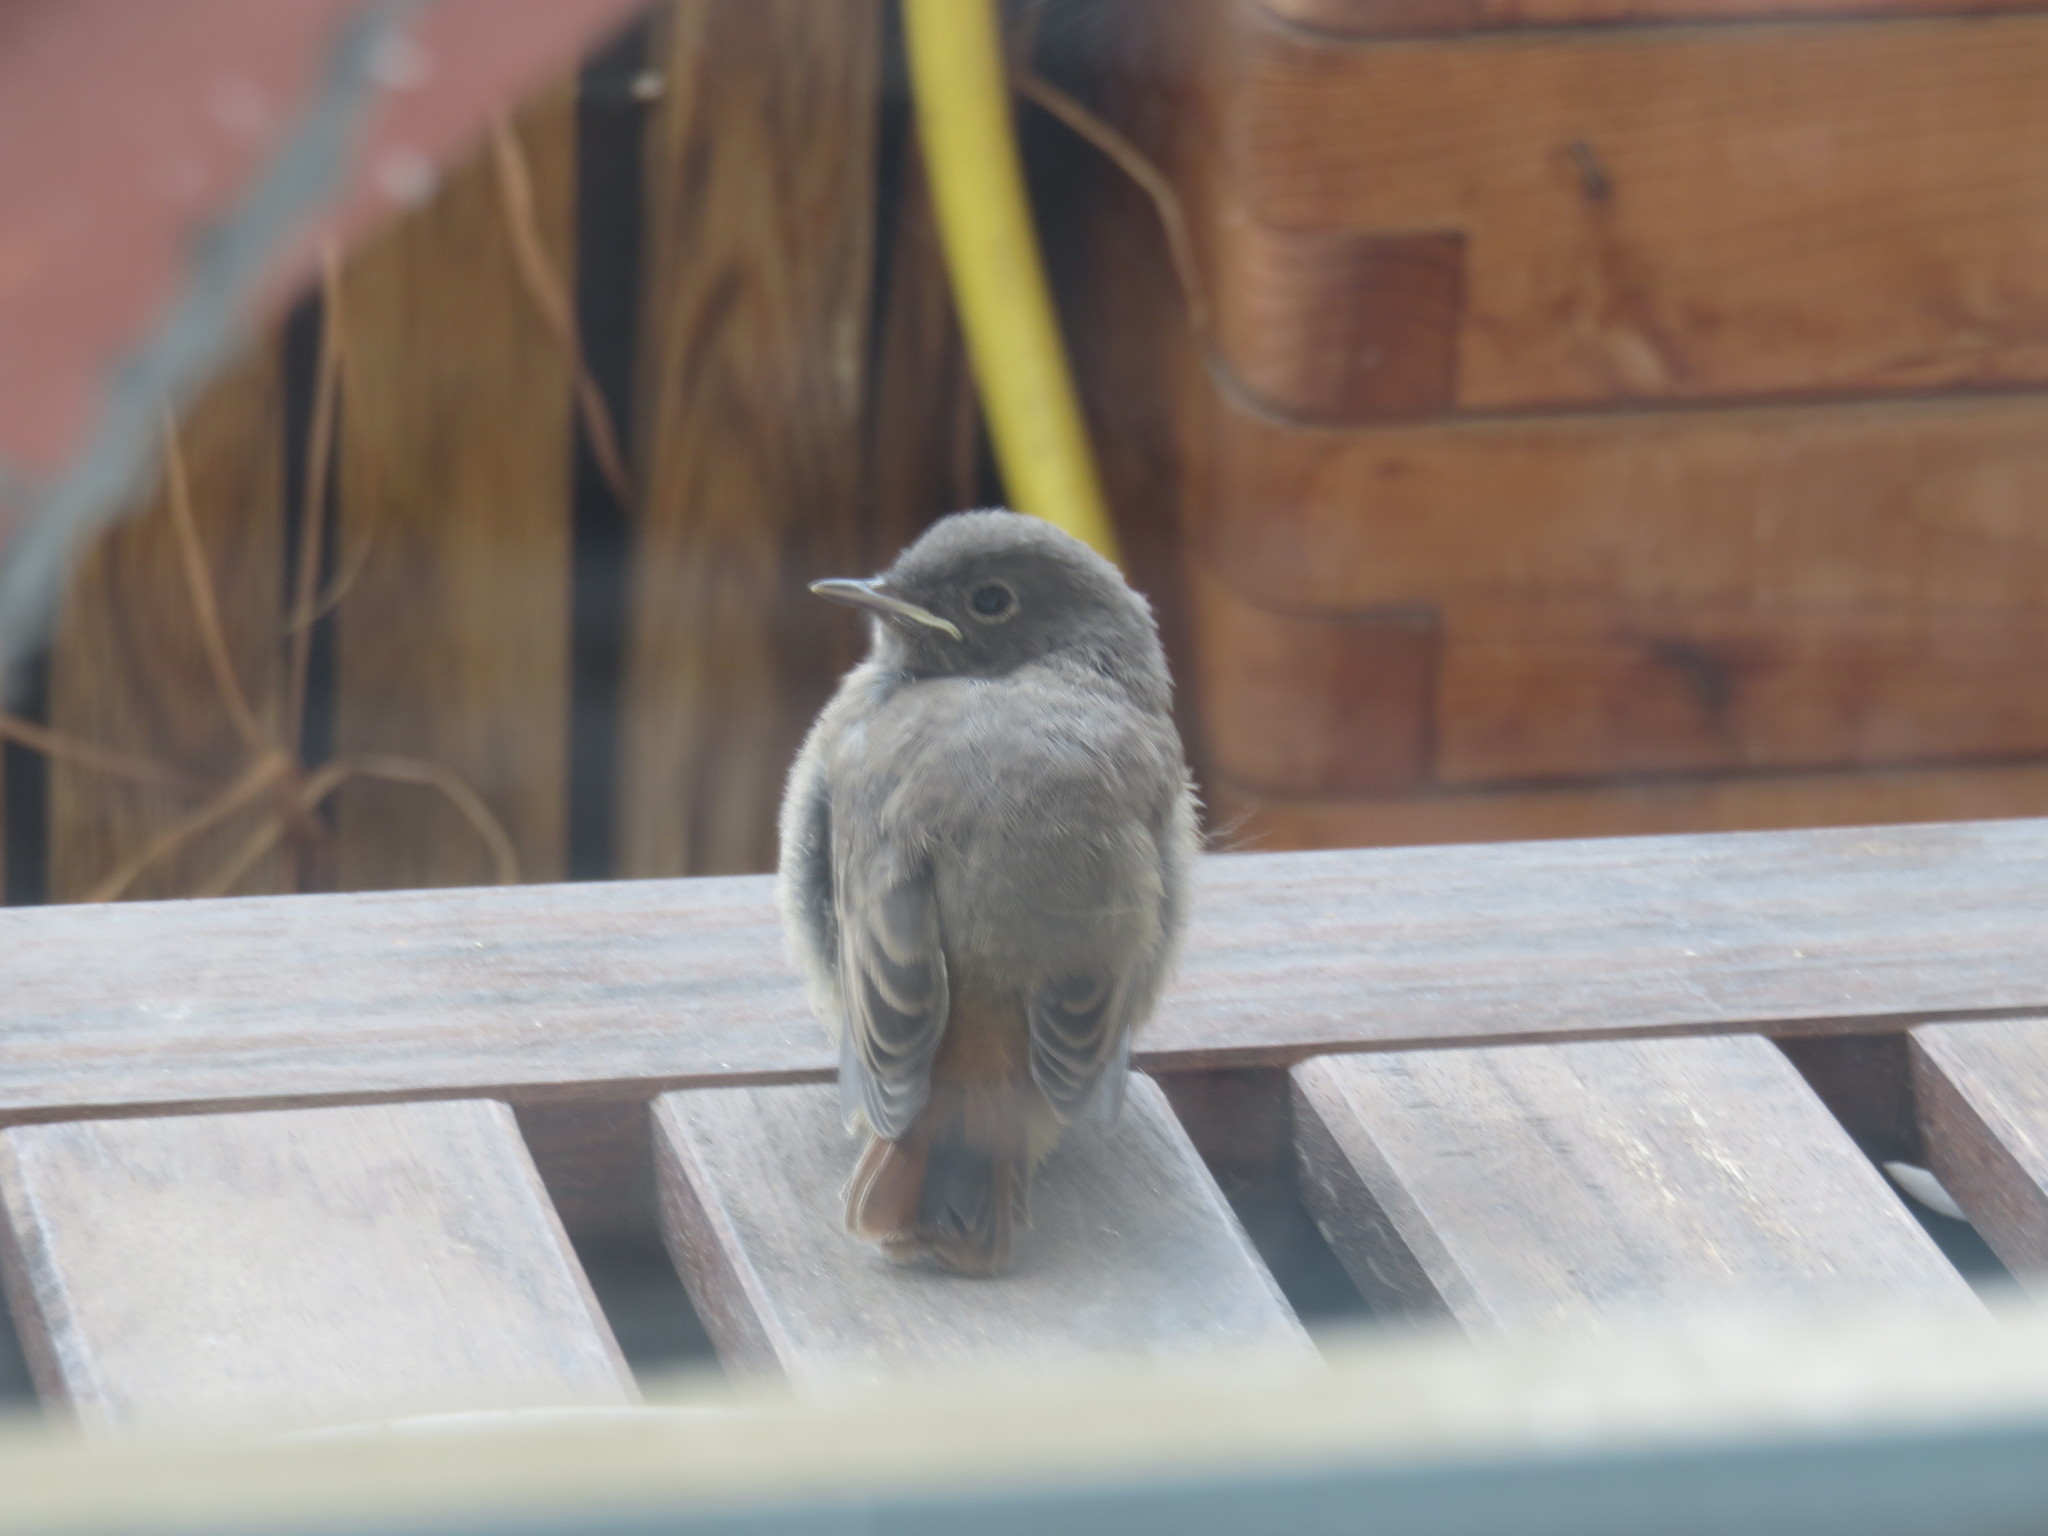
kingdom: Animalia
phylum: Chordata
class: Aves
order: Passeriformes
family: Muscicapidae
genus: Phoenicurus
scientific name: Phoenicurus ochruros
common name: Black redstart
